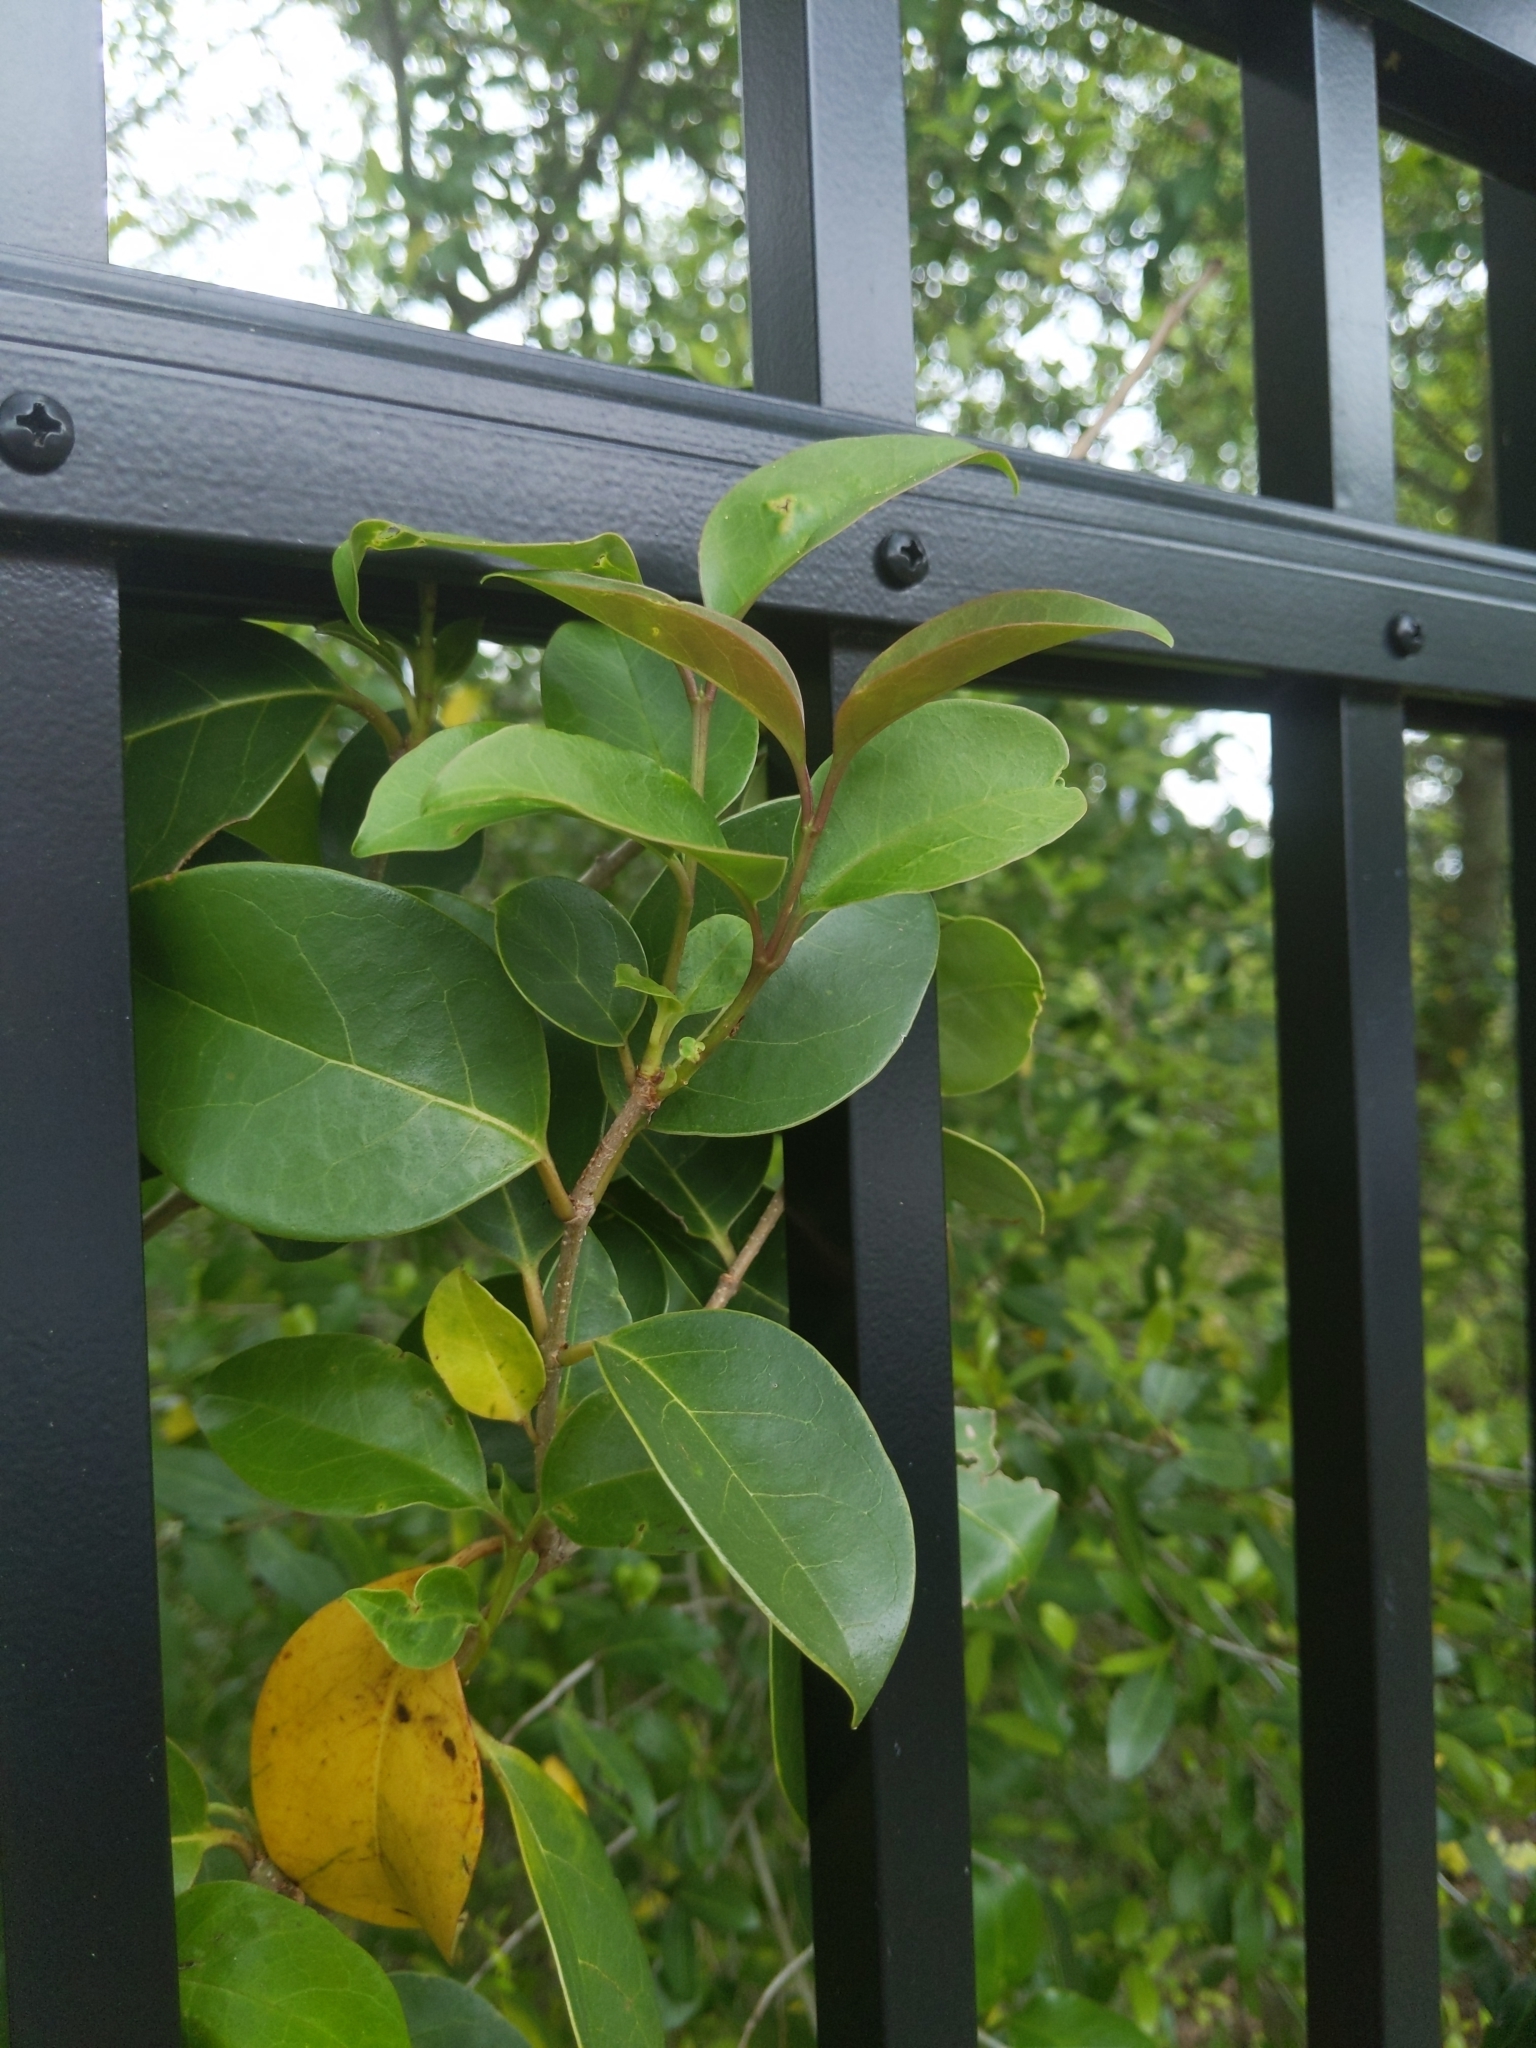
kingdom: Plantae
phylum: Tracheophyta
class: Magnoliopsida
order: Lamiales
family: Oleaceae
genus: Ligustrum
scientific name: Ligustrum lucidum
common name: Glossy privet
